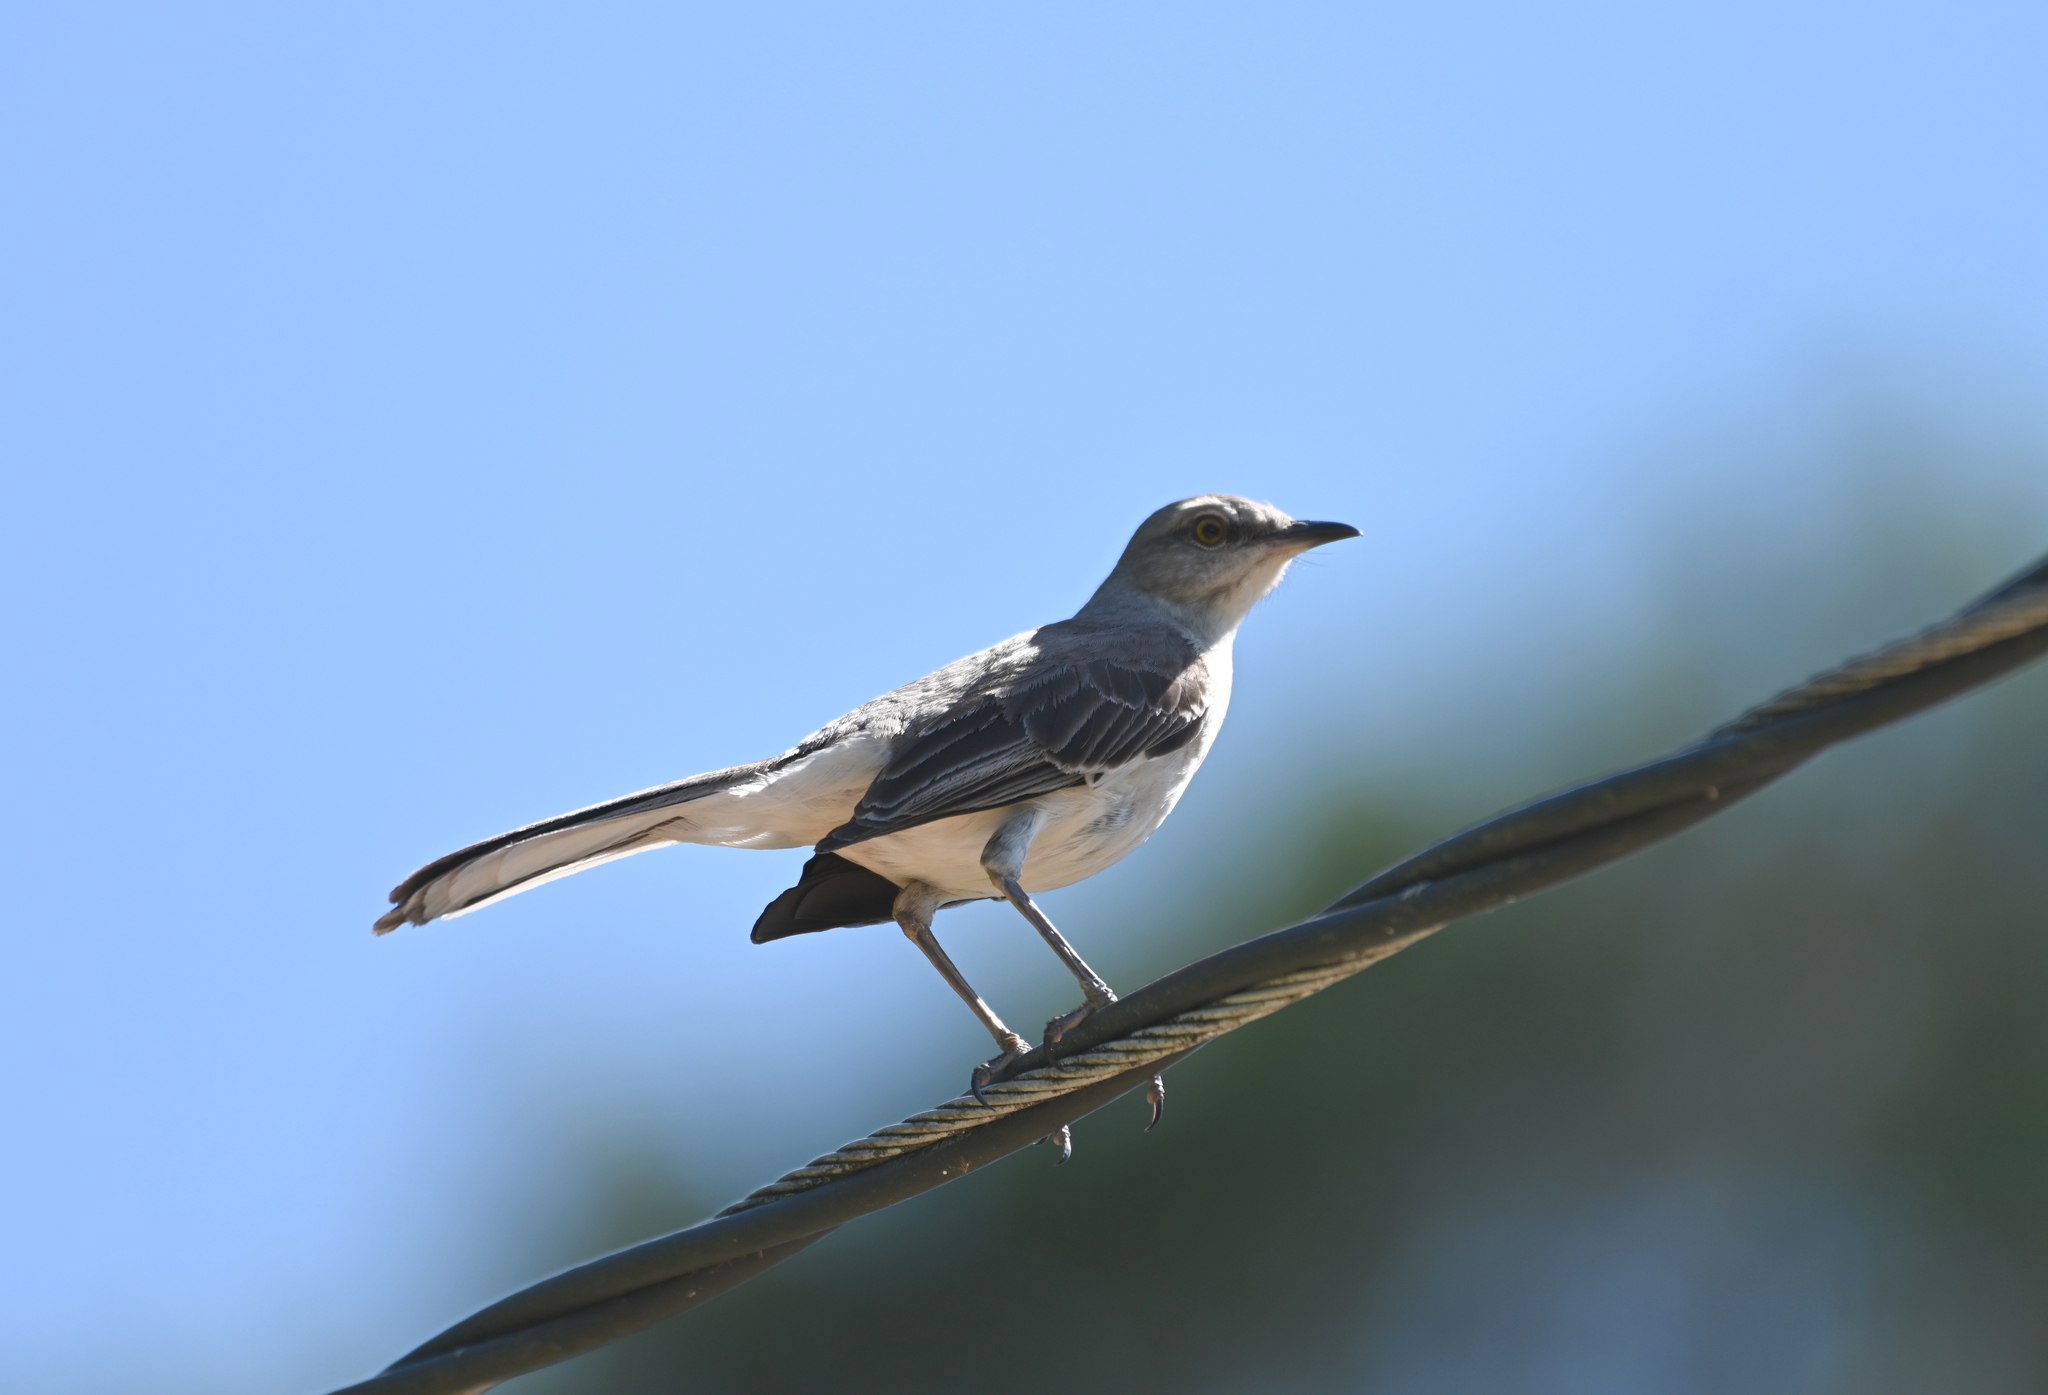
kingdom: Animalia
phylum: Chordata
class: Aves
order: Passeriformes
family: Mimidae
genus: Mimus
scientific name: Mimus polyglottos
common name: Northern mockingbird
